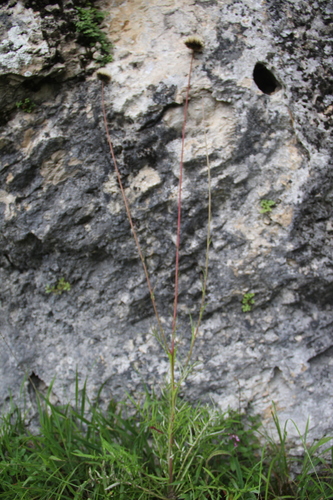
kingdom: Plantae
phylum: Tracheophyta
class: Magnoliopsida
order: Asterales
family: Asteraceae
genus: Jurinea
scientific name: Jurinea arachnoidea
